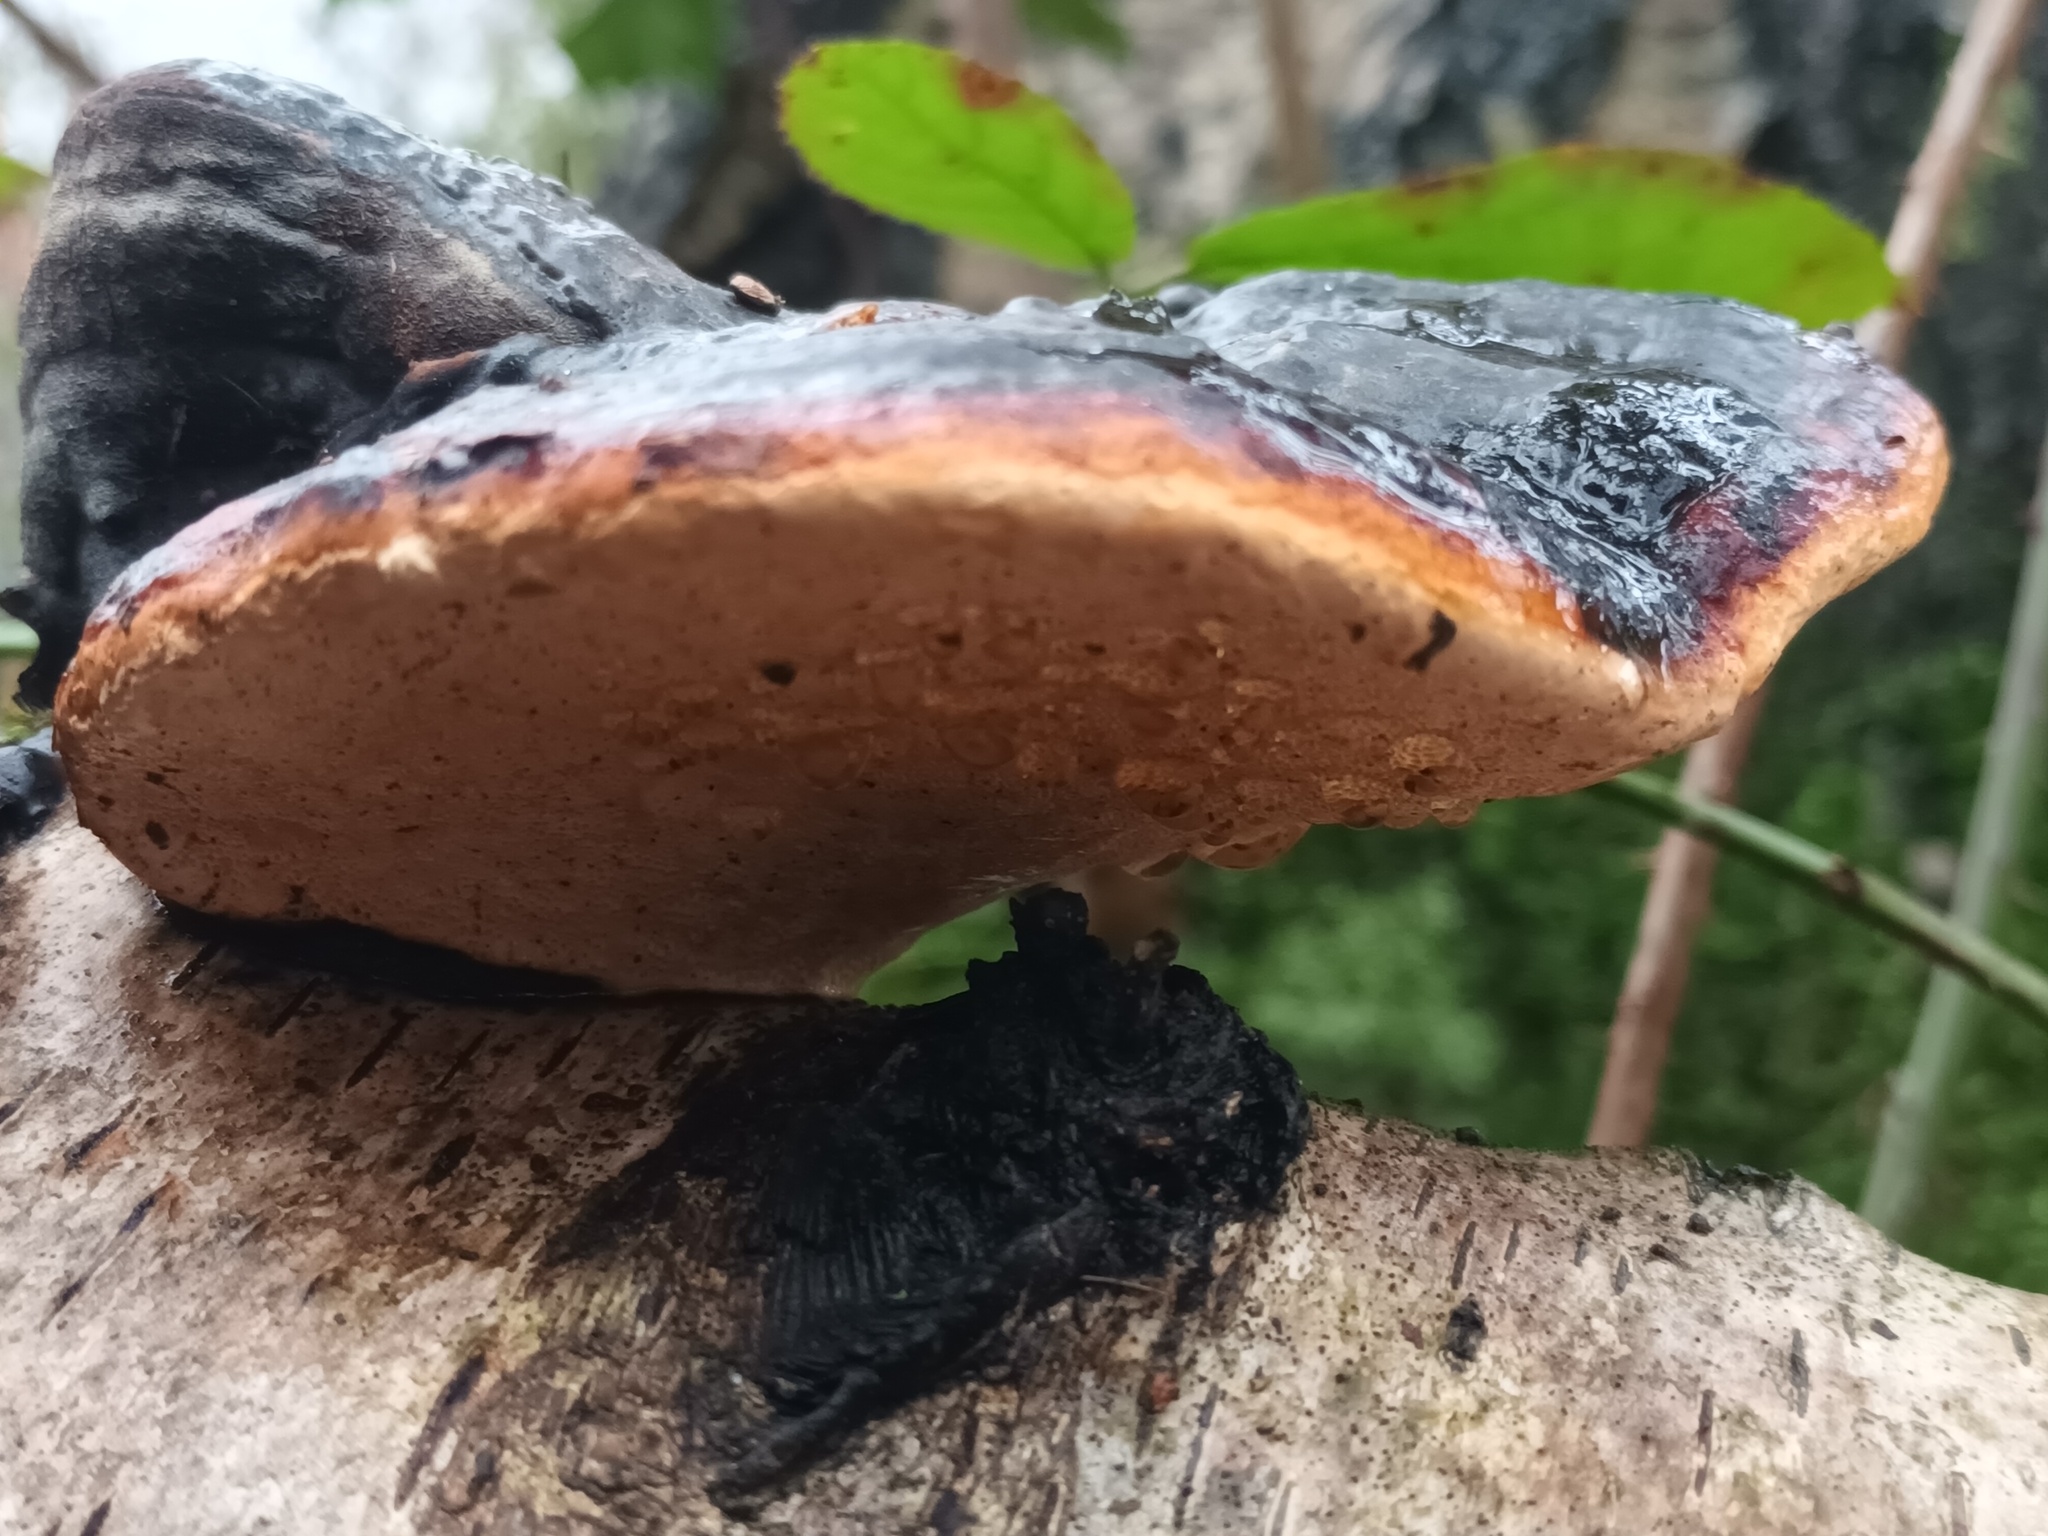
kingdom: Fungi
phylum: Basidiomycota
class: Agaricomycetes
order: Polyporales
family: Fomitopsidaceae
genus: Fomitopsis
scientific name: Fomitopsis pinicola
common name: Red-belted bracket
